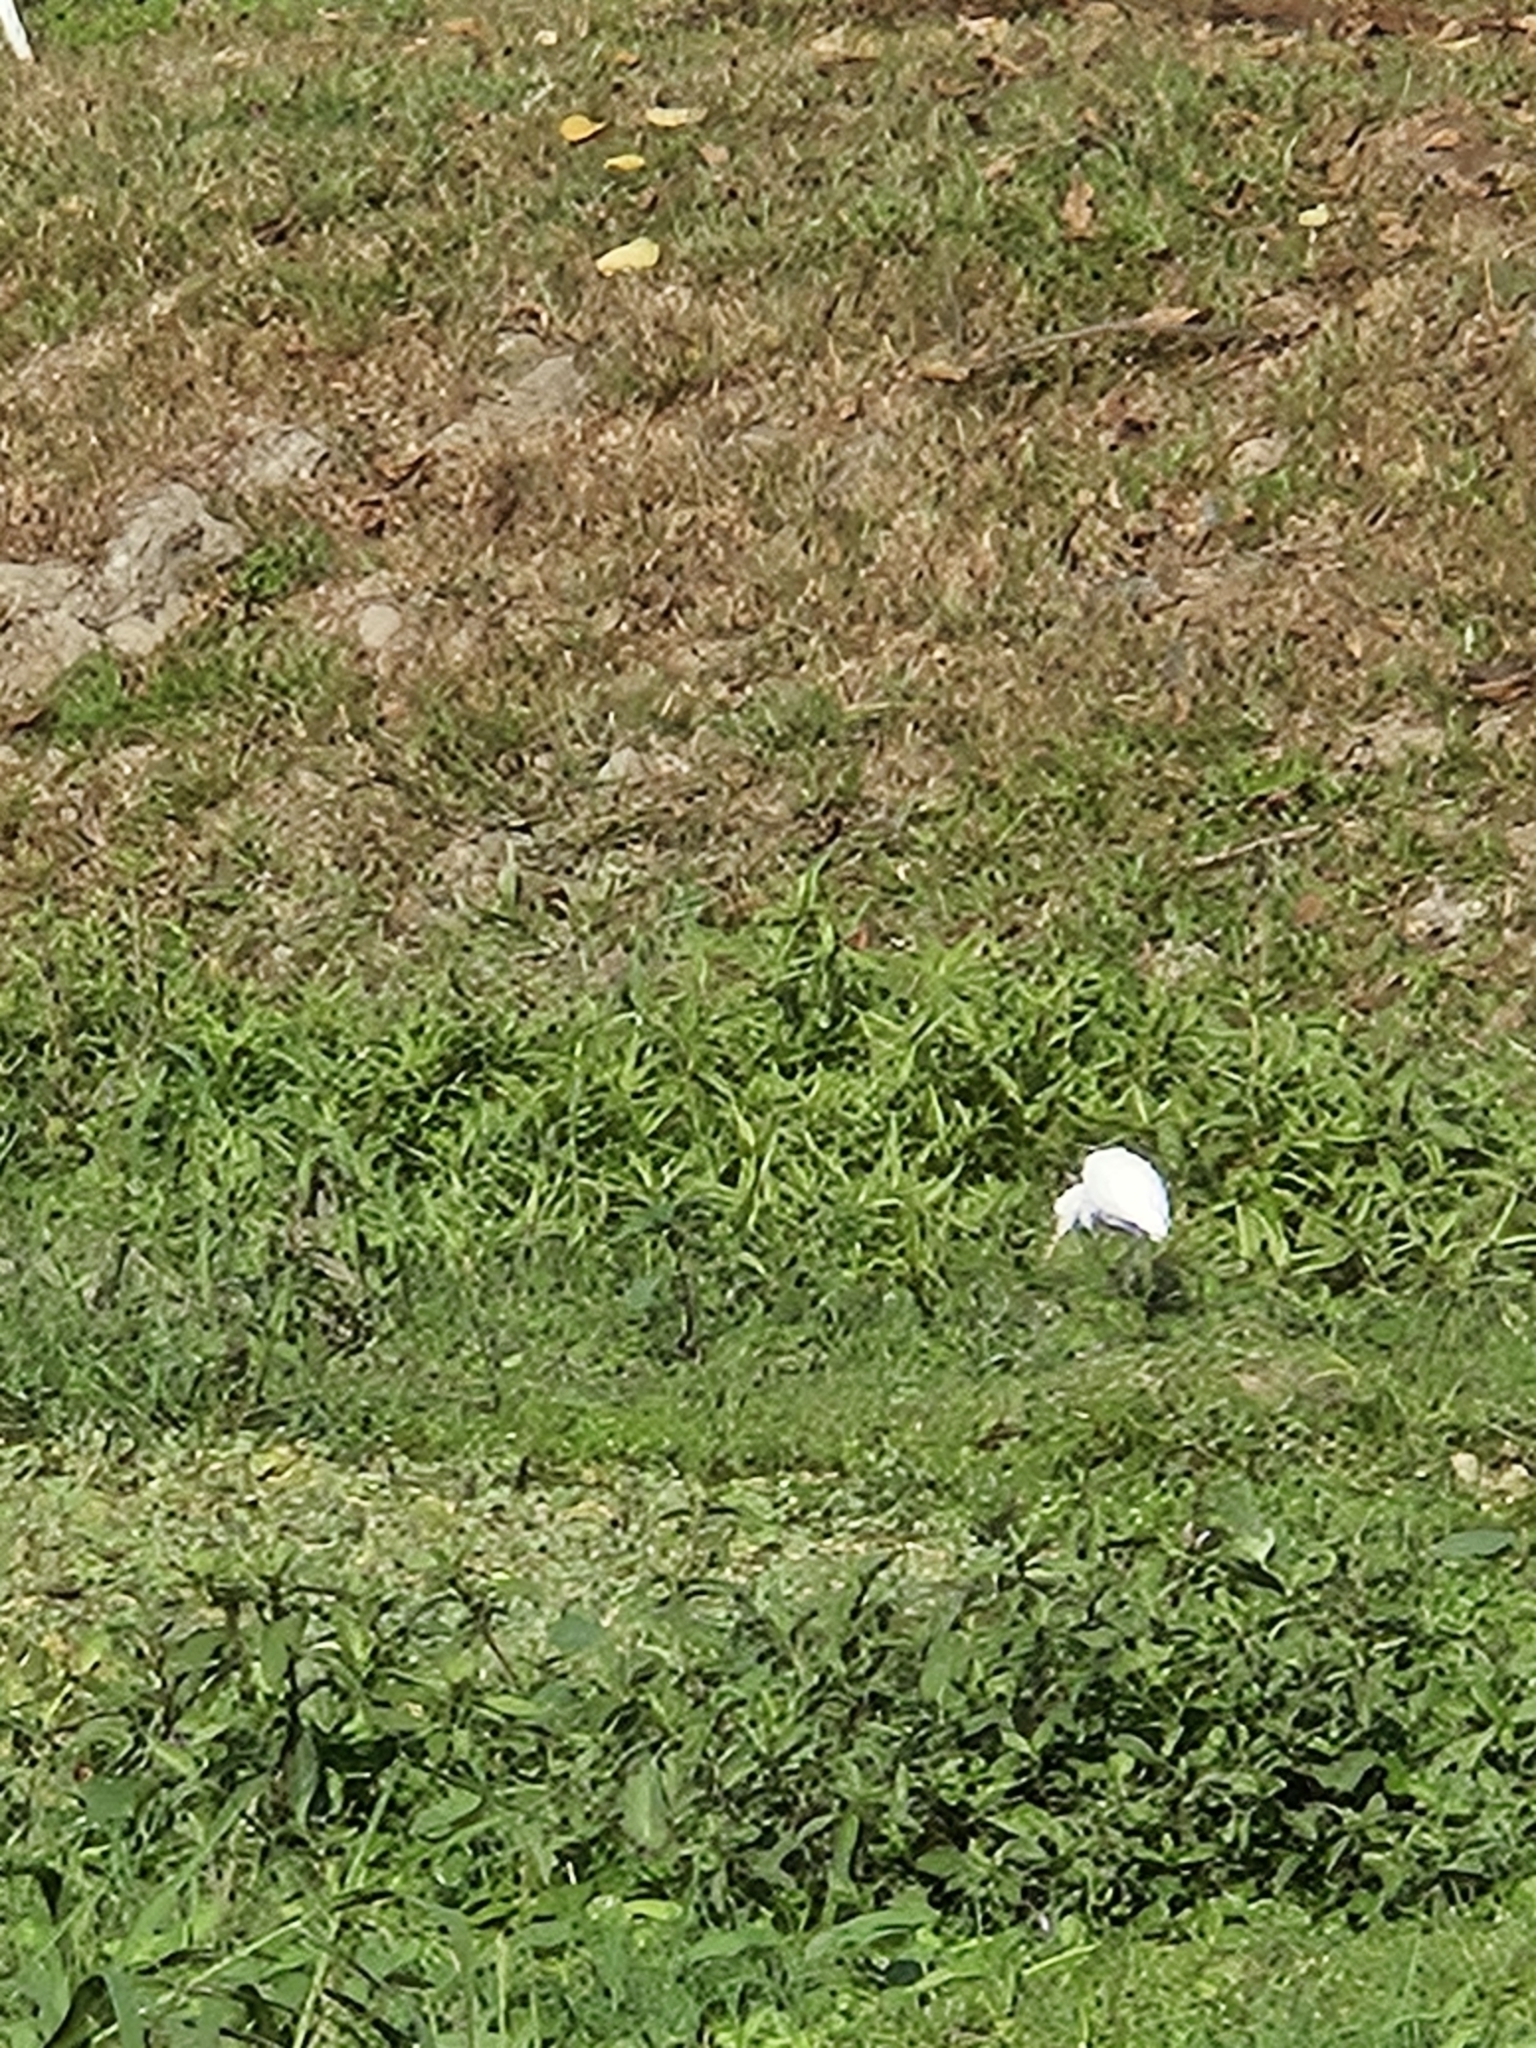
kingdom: Animalia
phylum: Chordata
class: Aves
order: Pelecaniformes
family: Ardeidae
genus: Bubulcus
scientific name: Bubulcus coromandus
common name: Eastern cattle egret
